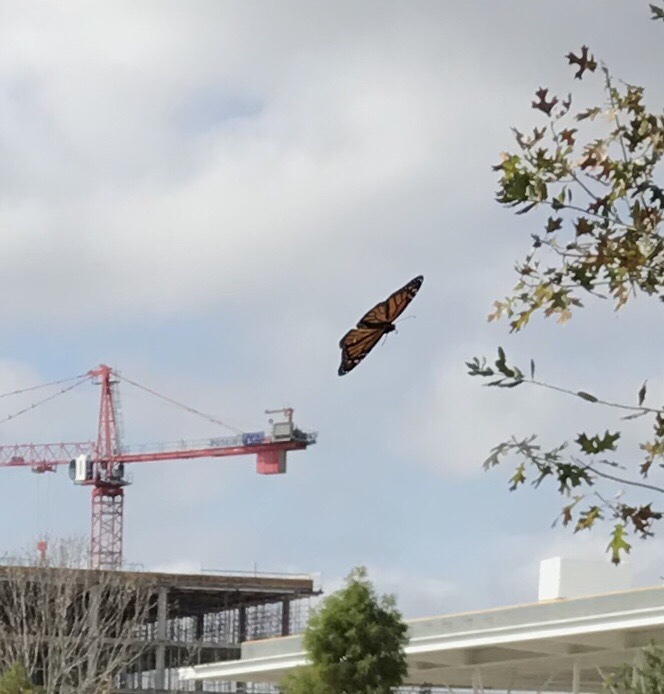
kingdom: Animalia
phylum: Arthropoda
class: Insecta
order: Lepidoptera
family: Nymphalidae
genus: Danaus
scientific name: Danaus plexippus
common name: Monarch
